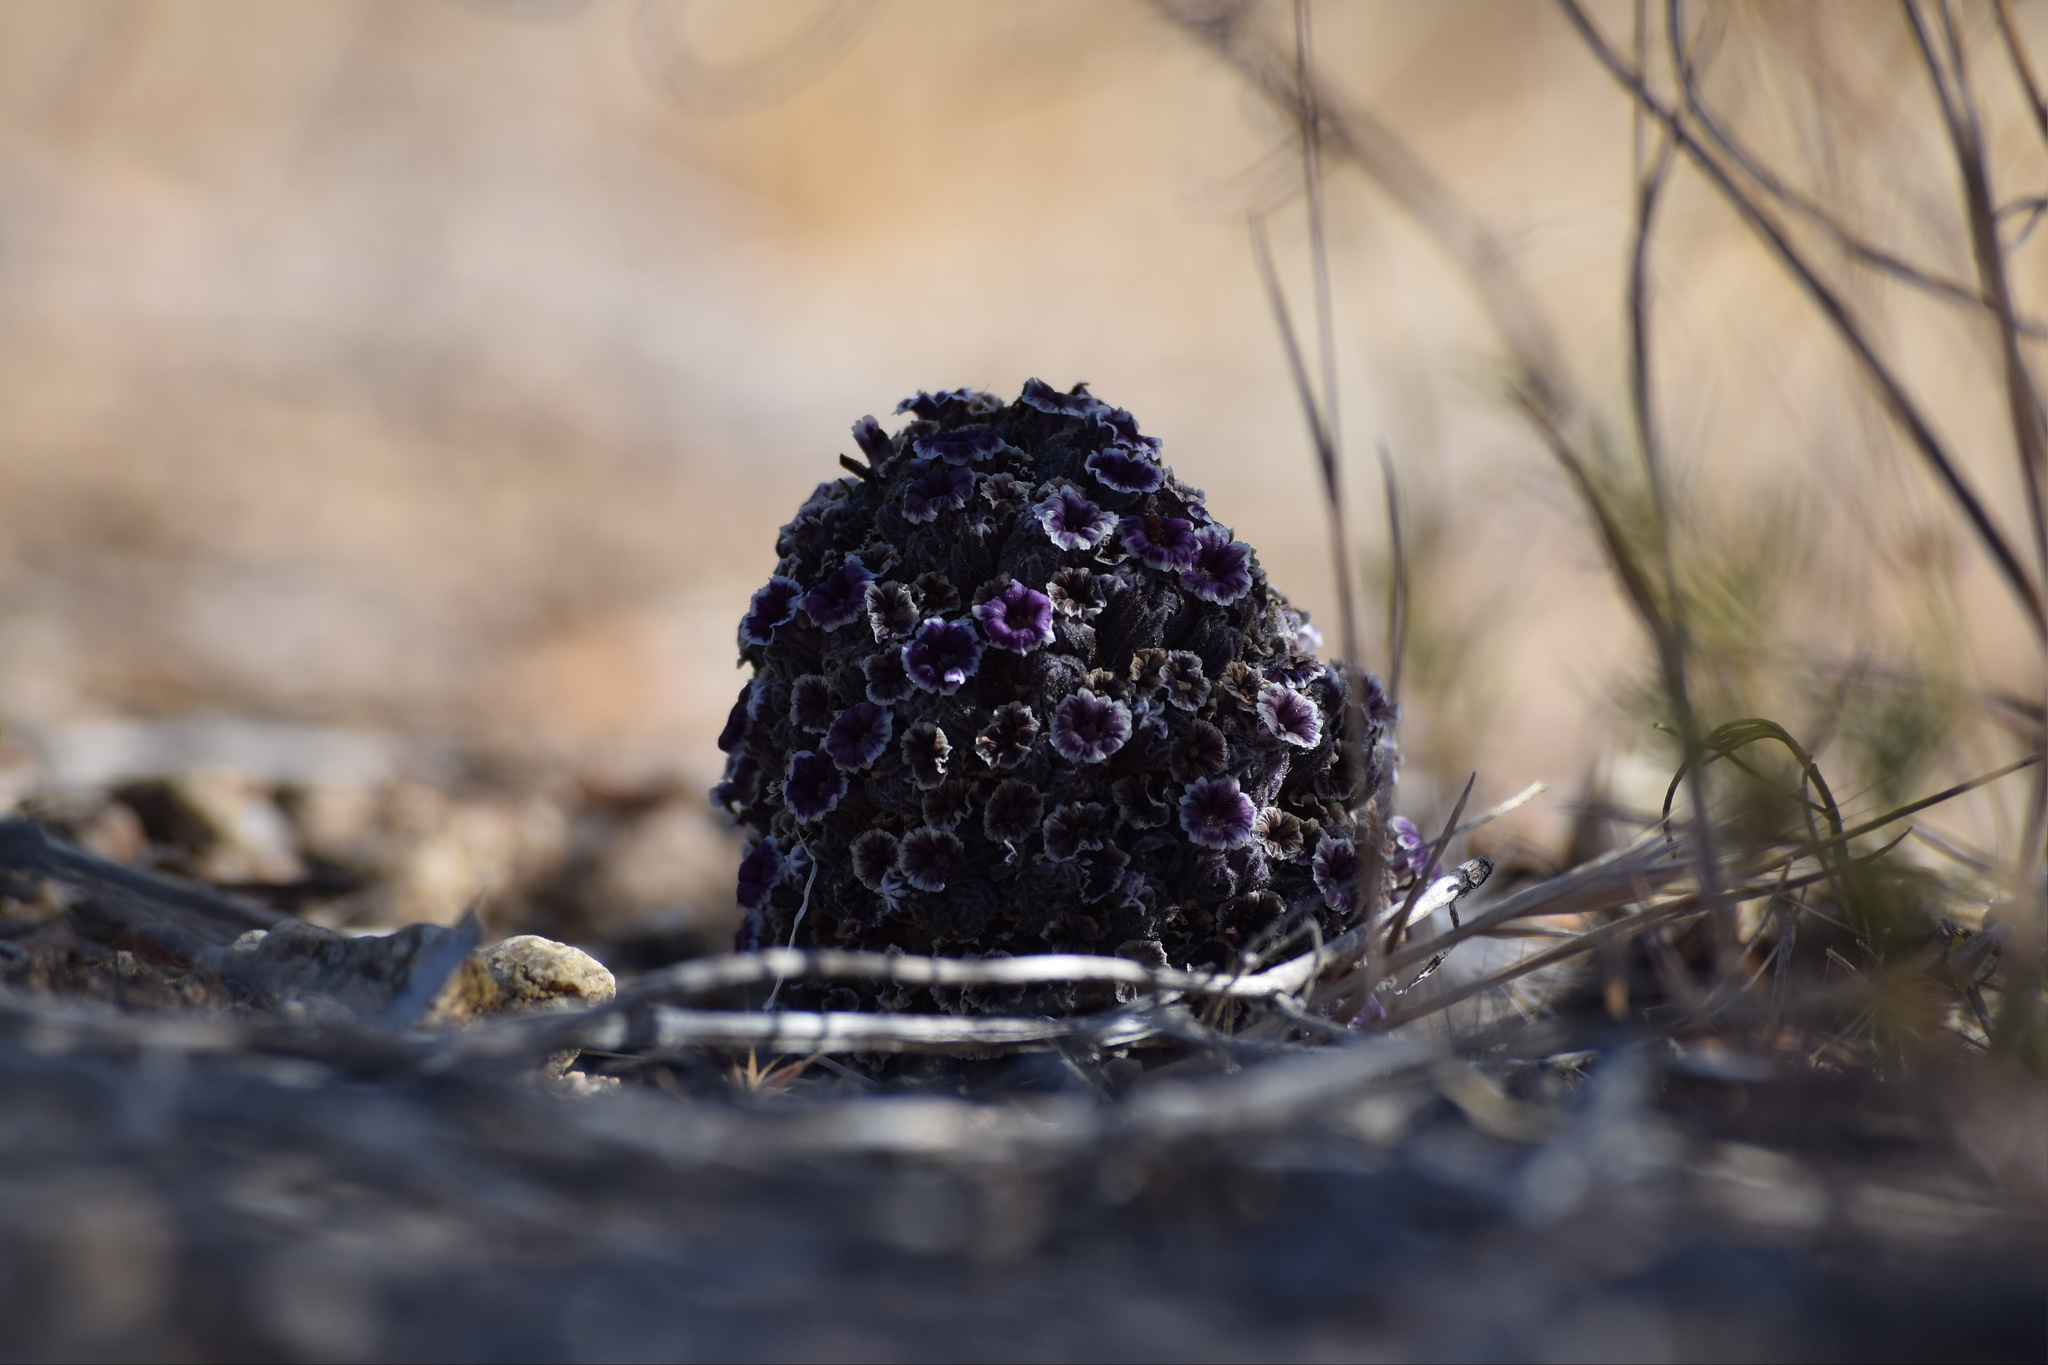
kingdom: Plantae
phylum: Tracheophyta
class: Magnoliopsida
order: Boraginales
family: Lennoaceae
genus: Pholisma
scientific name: Pholisma arenarium
